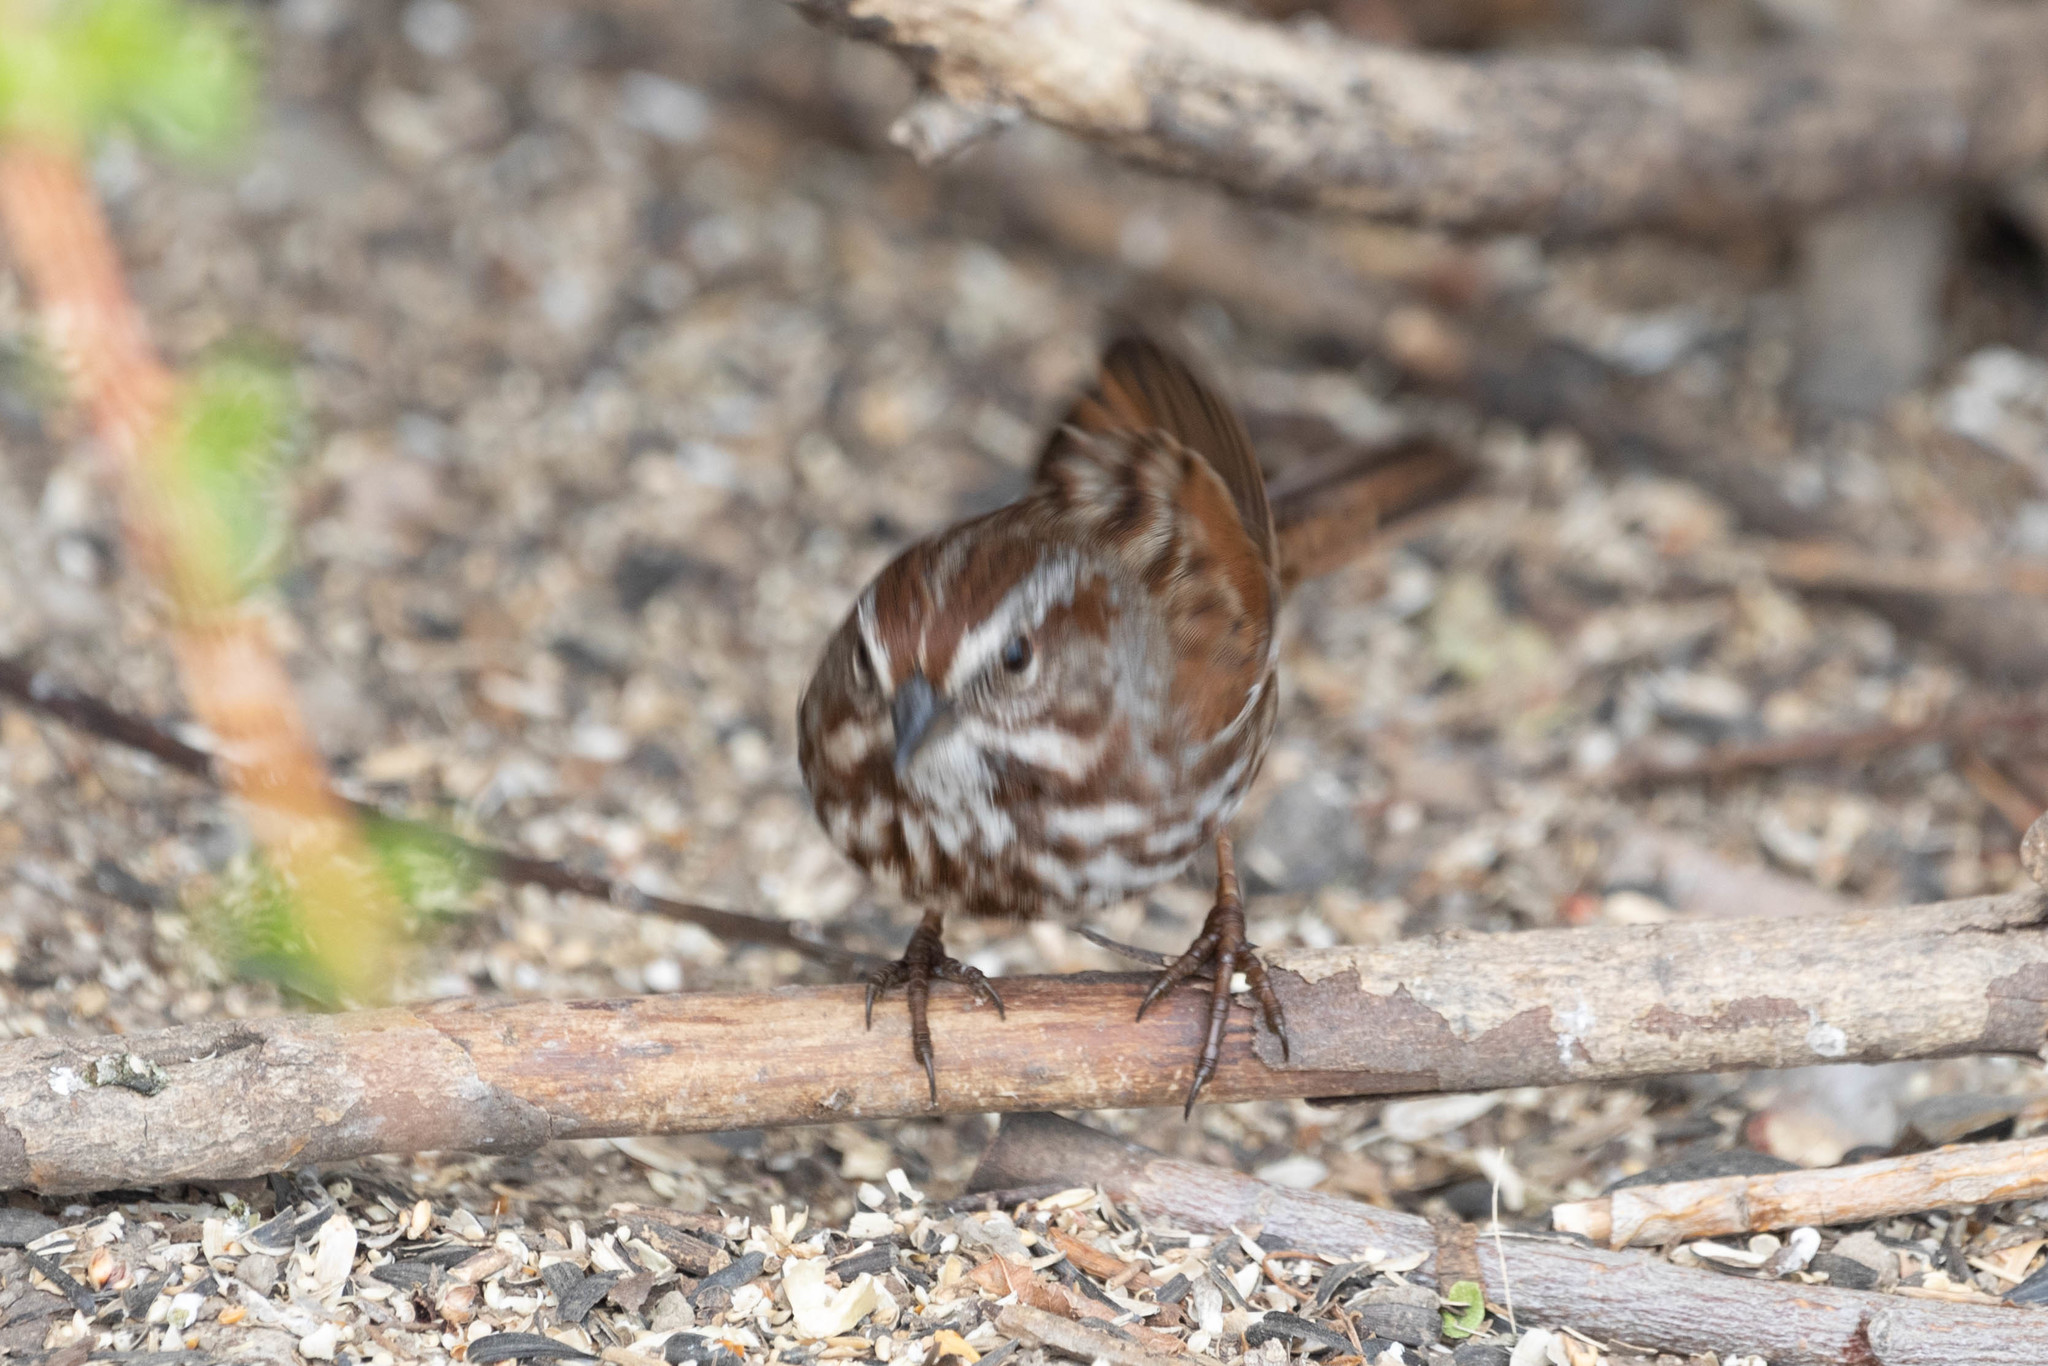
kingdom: Animalia
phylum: Chordata
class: Aves
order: Passeriformes
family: Passerellidae
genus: Melospiza
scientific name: Melospiza melodia
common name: Song sparrow
